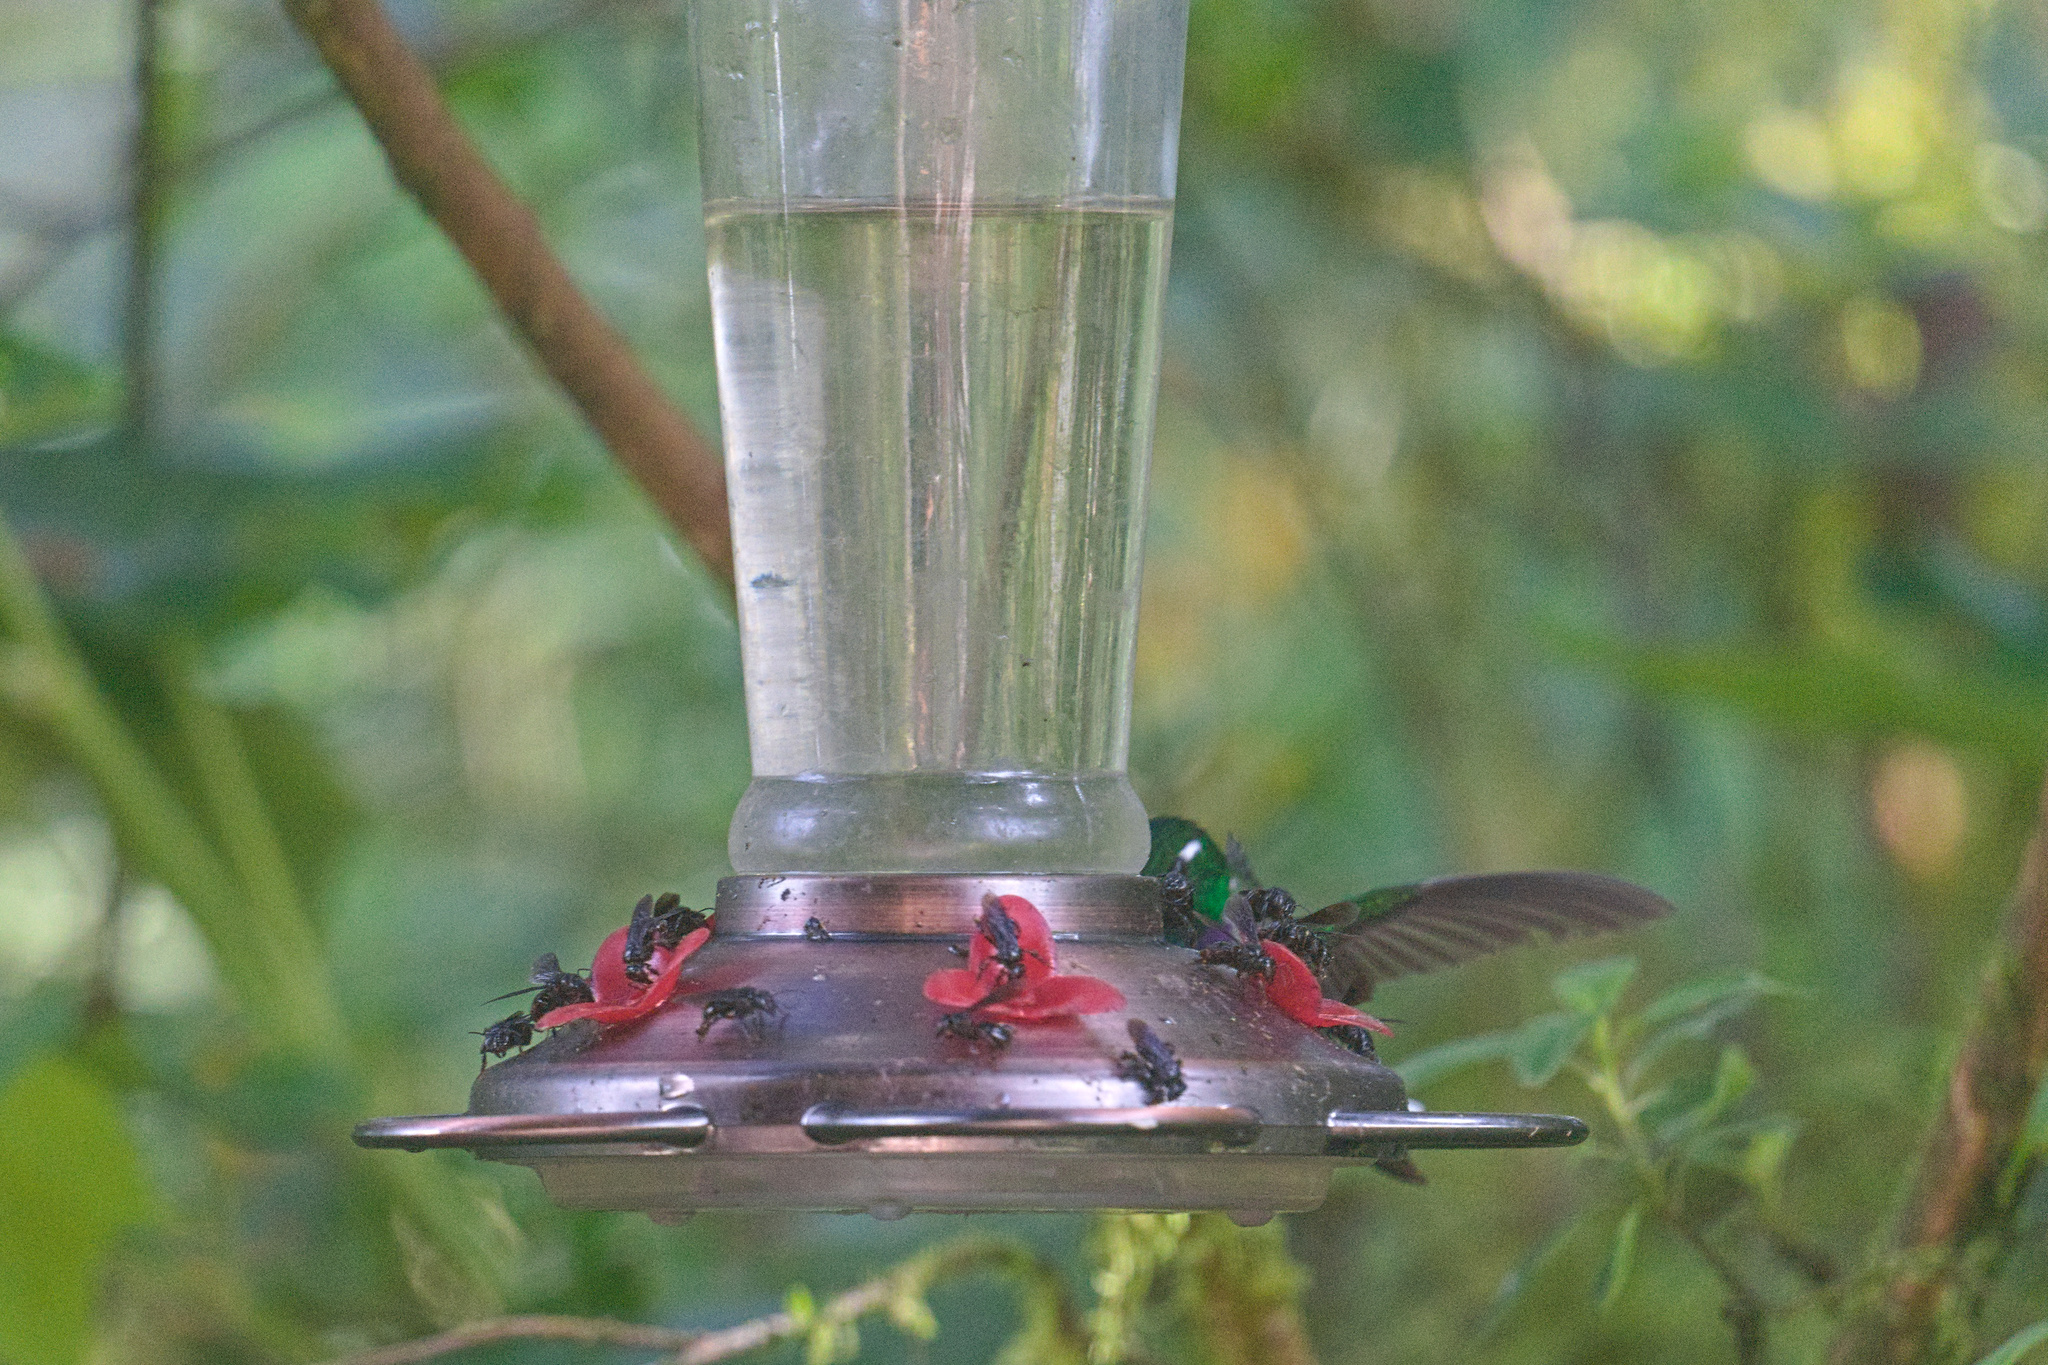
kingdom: Animalia
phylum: Chordata
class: Aves
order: Apodiformes
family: Trochilidae
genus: Urosticte
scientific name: Urosticte benjamini
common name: Purple-bibbed whitetip
